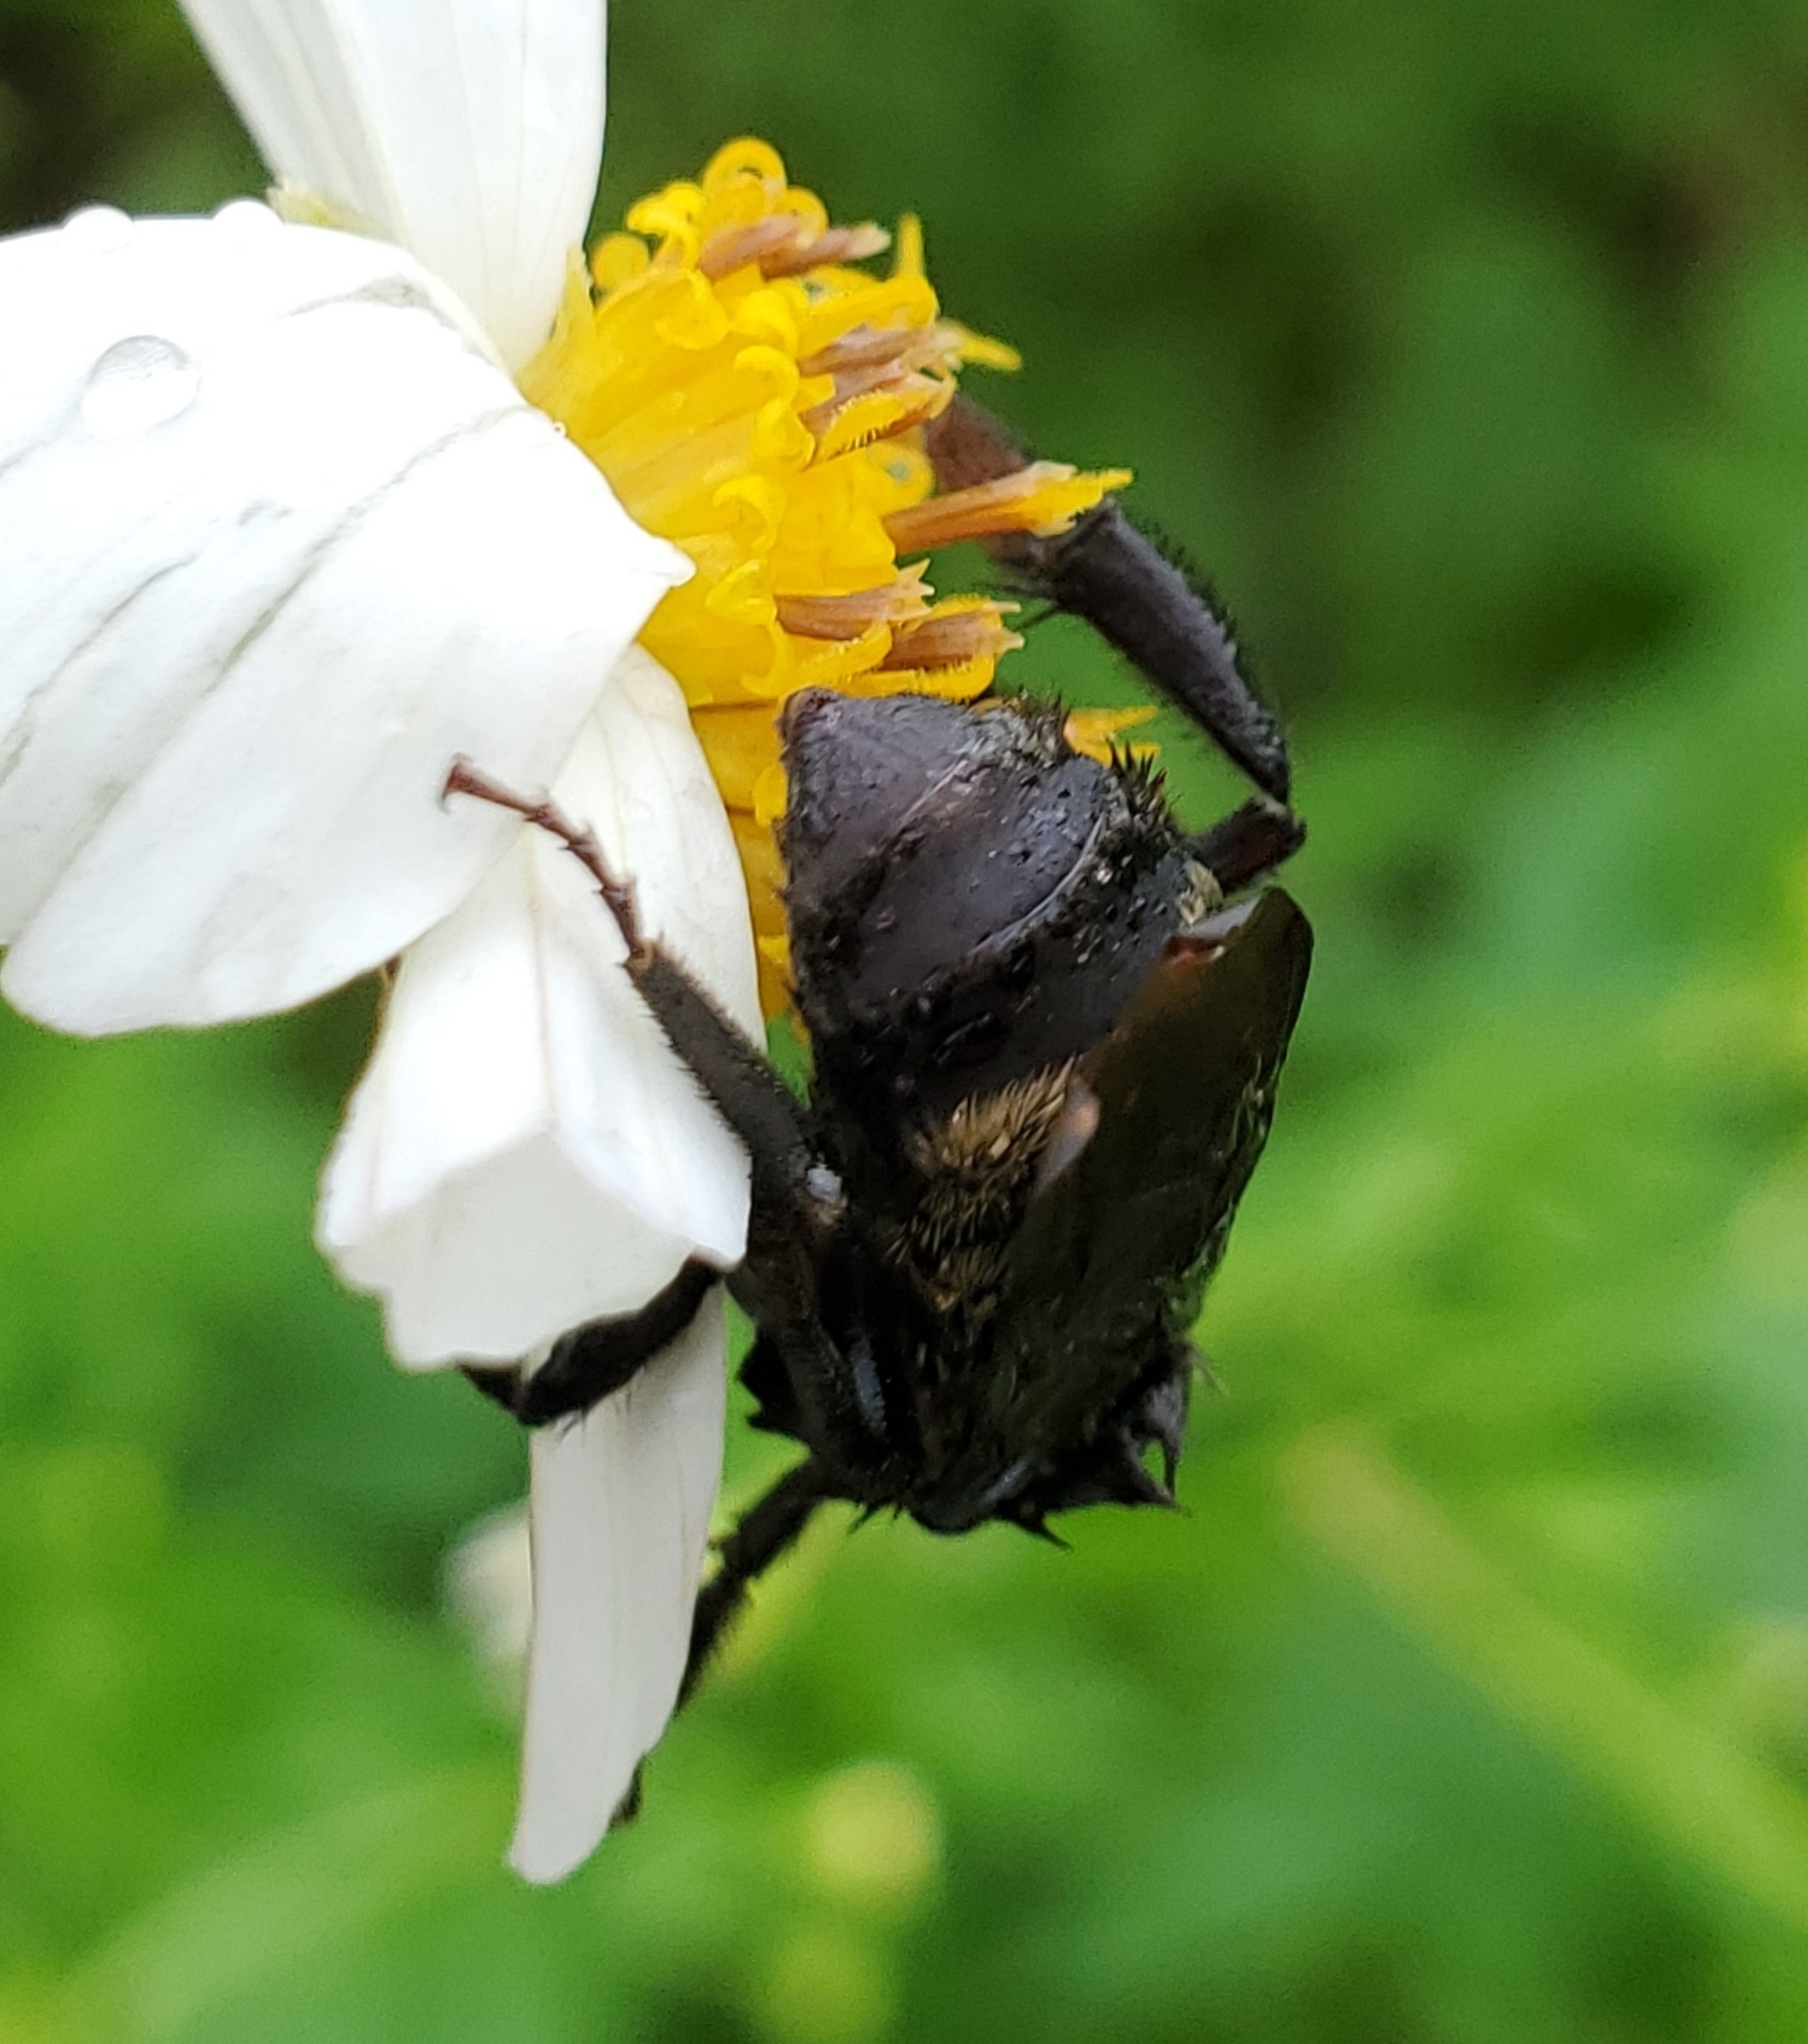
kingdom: Animalia
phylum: Arthropoda
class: Insecta
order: Hymenoptera
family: Apidae
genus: Bombus
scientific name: Bombus pensylvanicus
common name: Bumble bee
